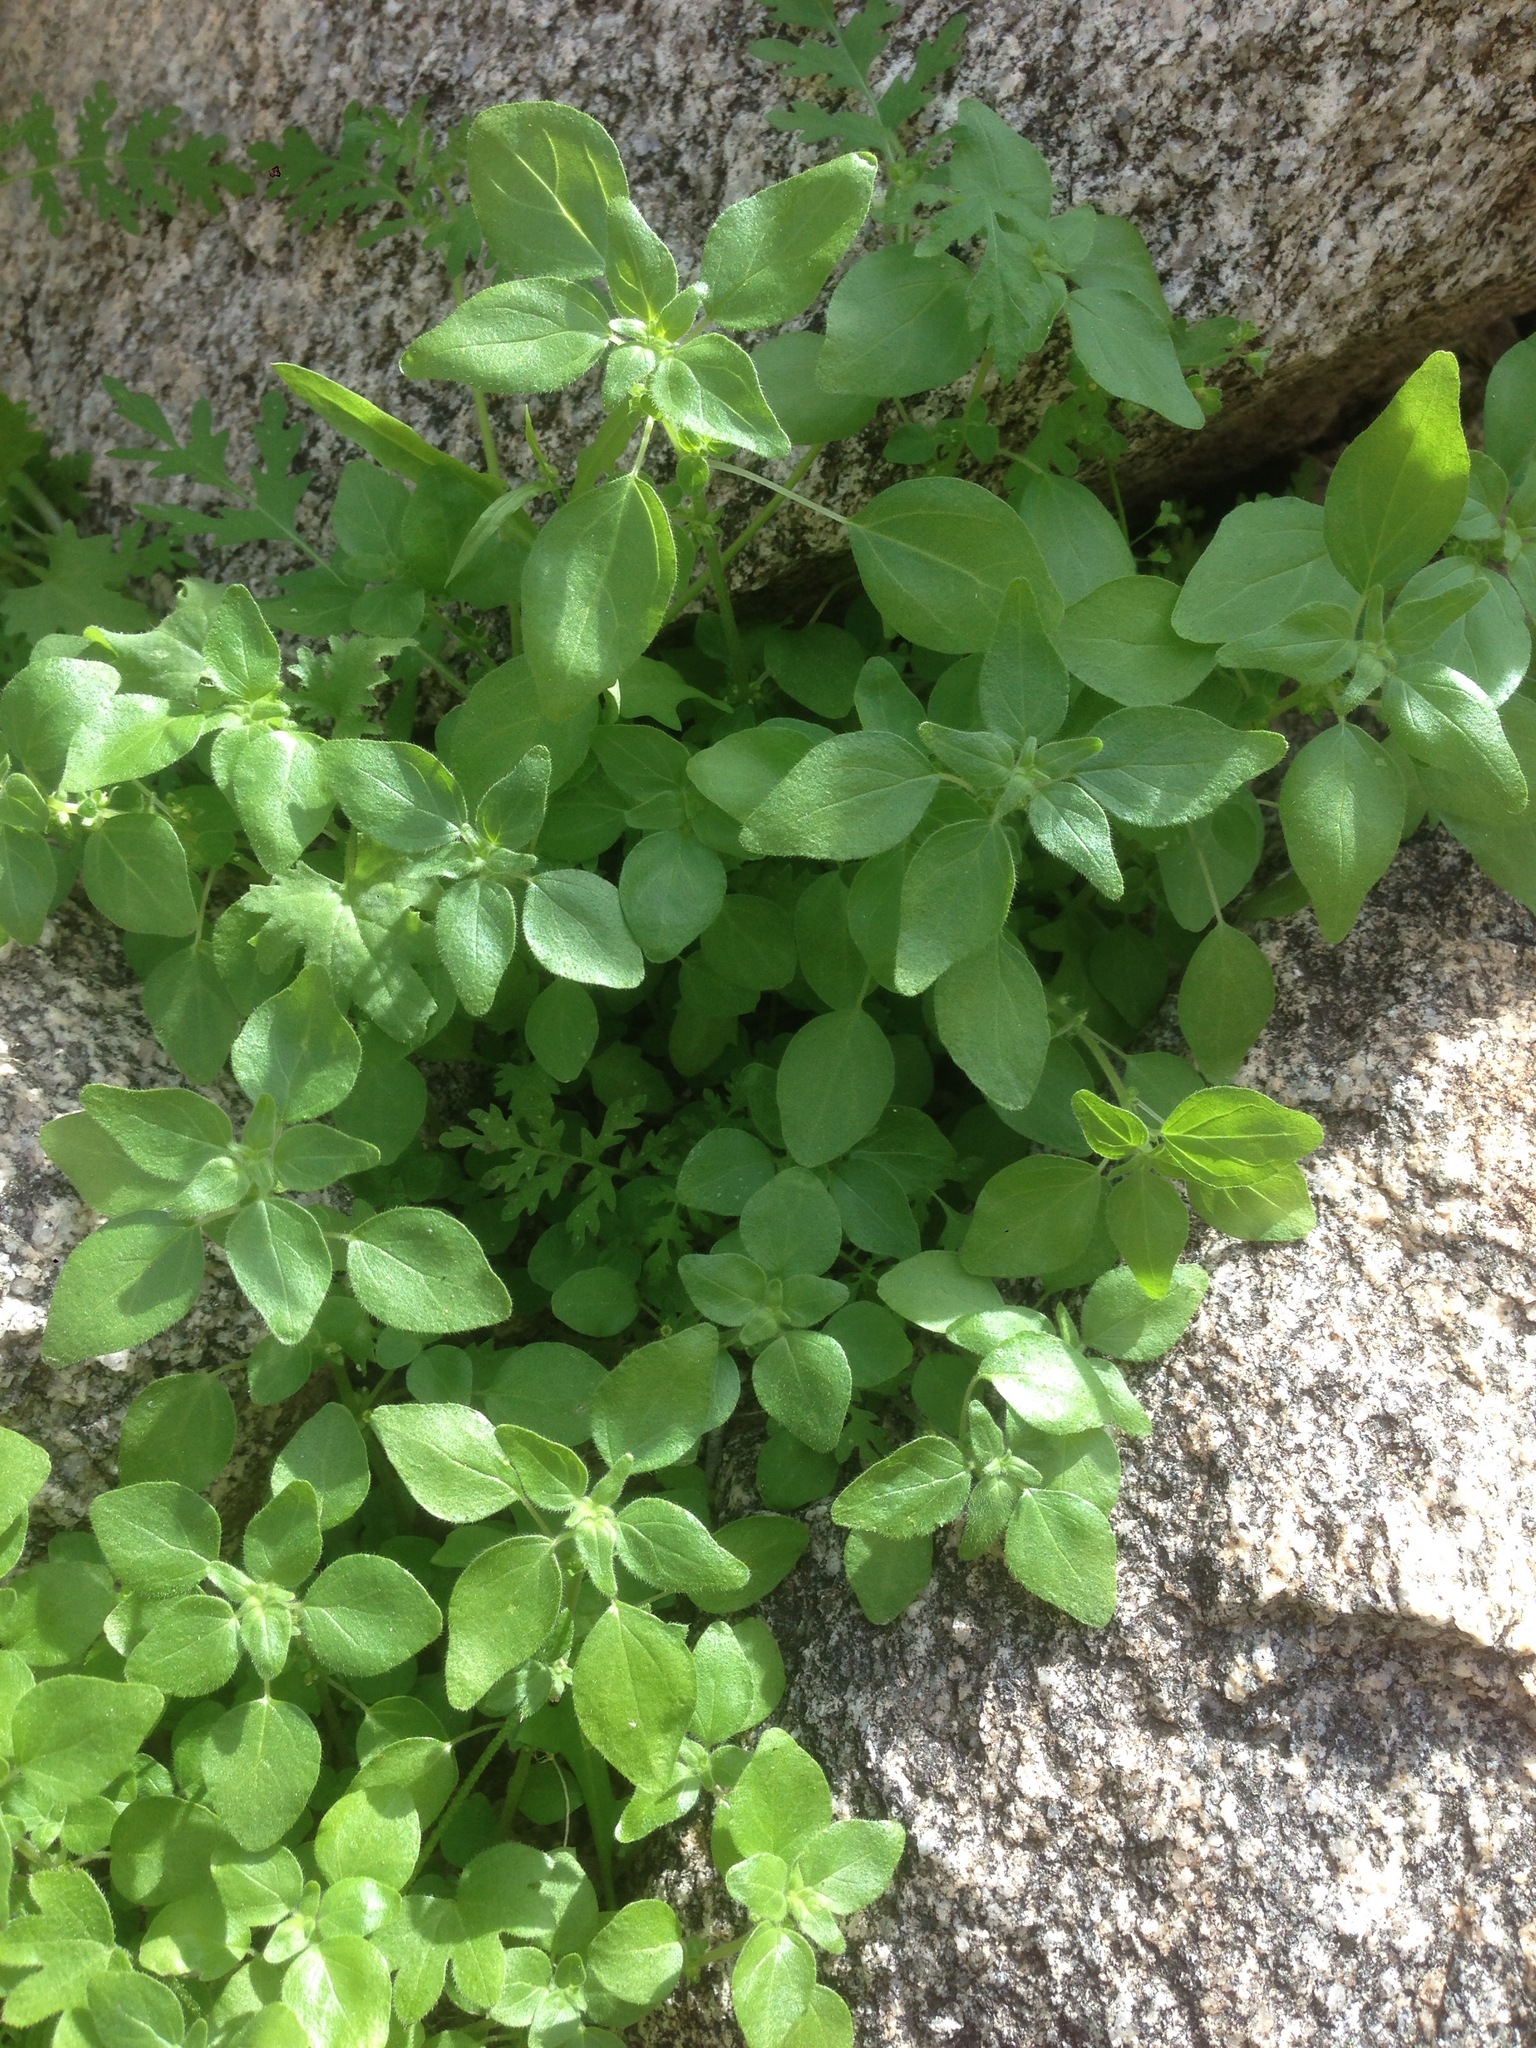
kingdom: Plantae
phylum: Tracheophyta
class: Magnoliopsida
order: Rosales
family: Urticaceae
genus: Parietaria
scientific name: Parietaria hespera
